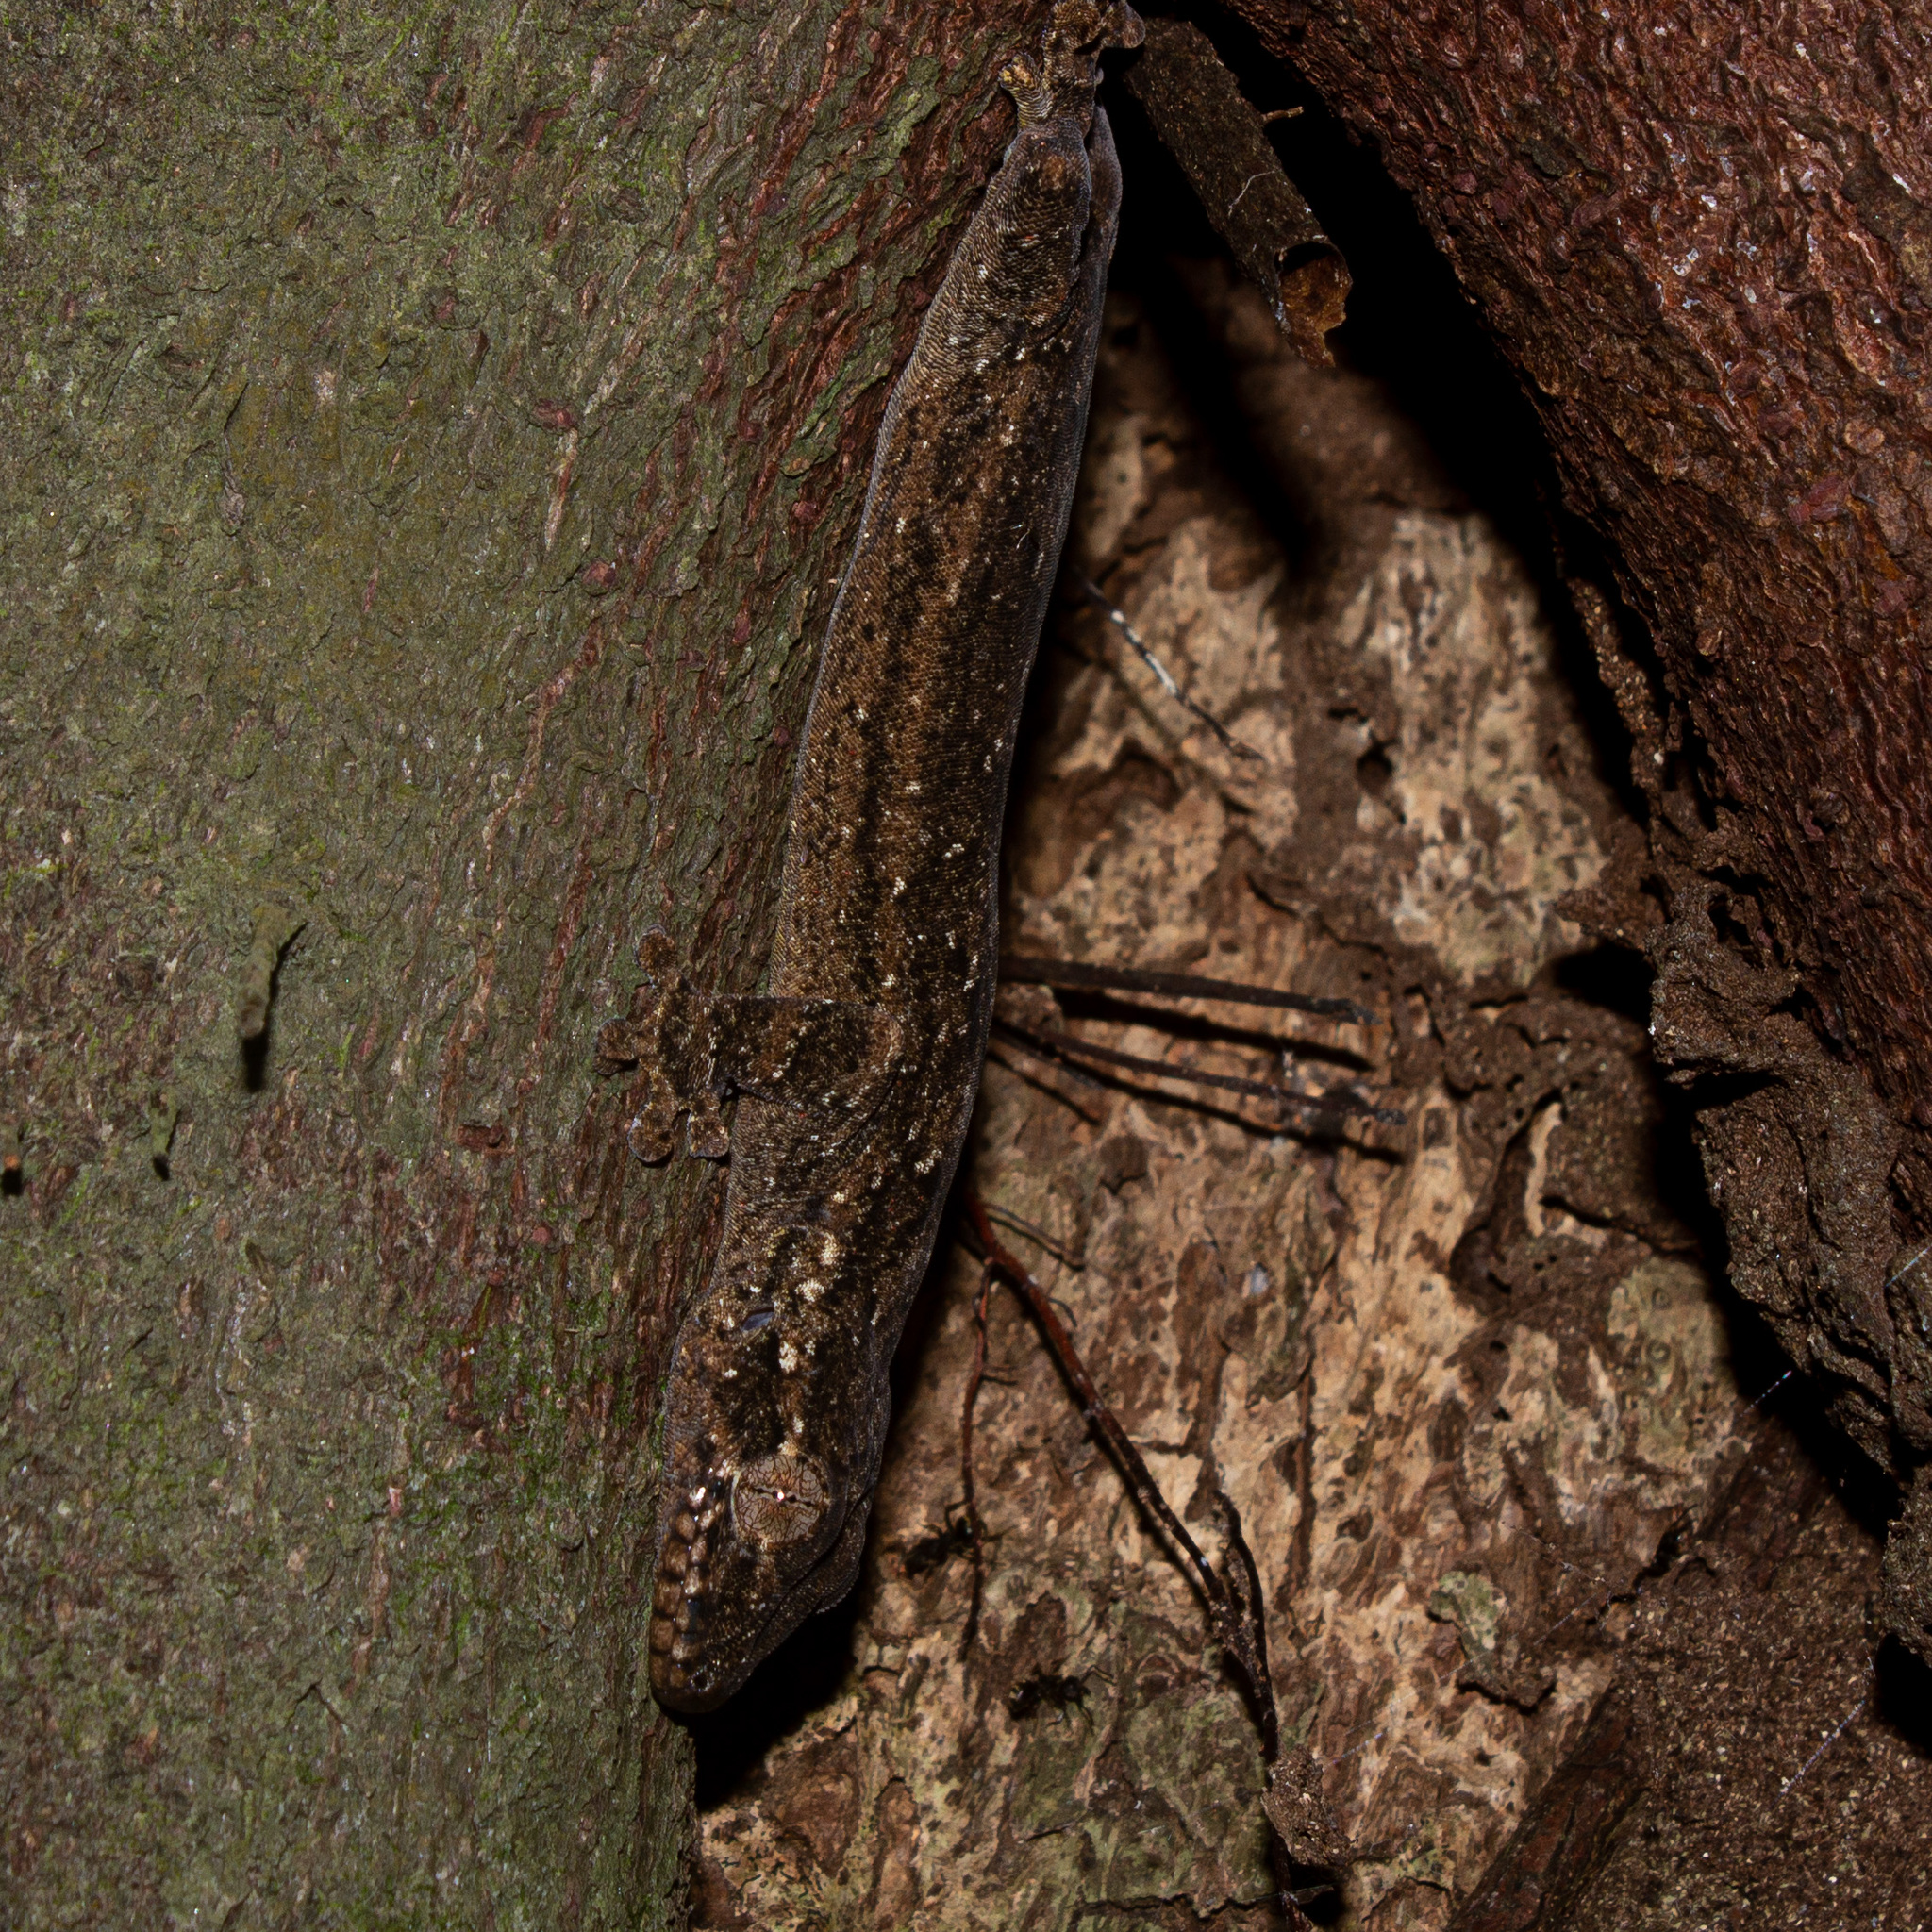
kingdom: Animalia
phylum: Chordata
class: Squamata
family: Phyllodactylidae
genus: Thecadactylus
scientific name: Thecadactylus rapicauda
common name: Turnip-tailed gecko
